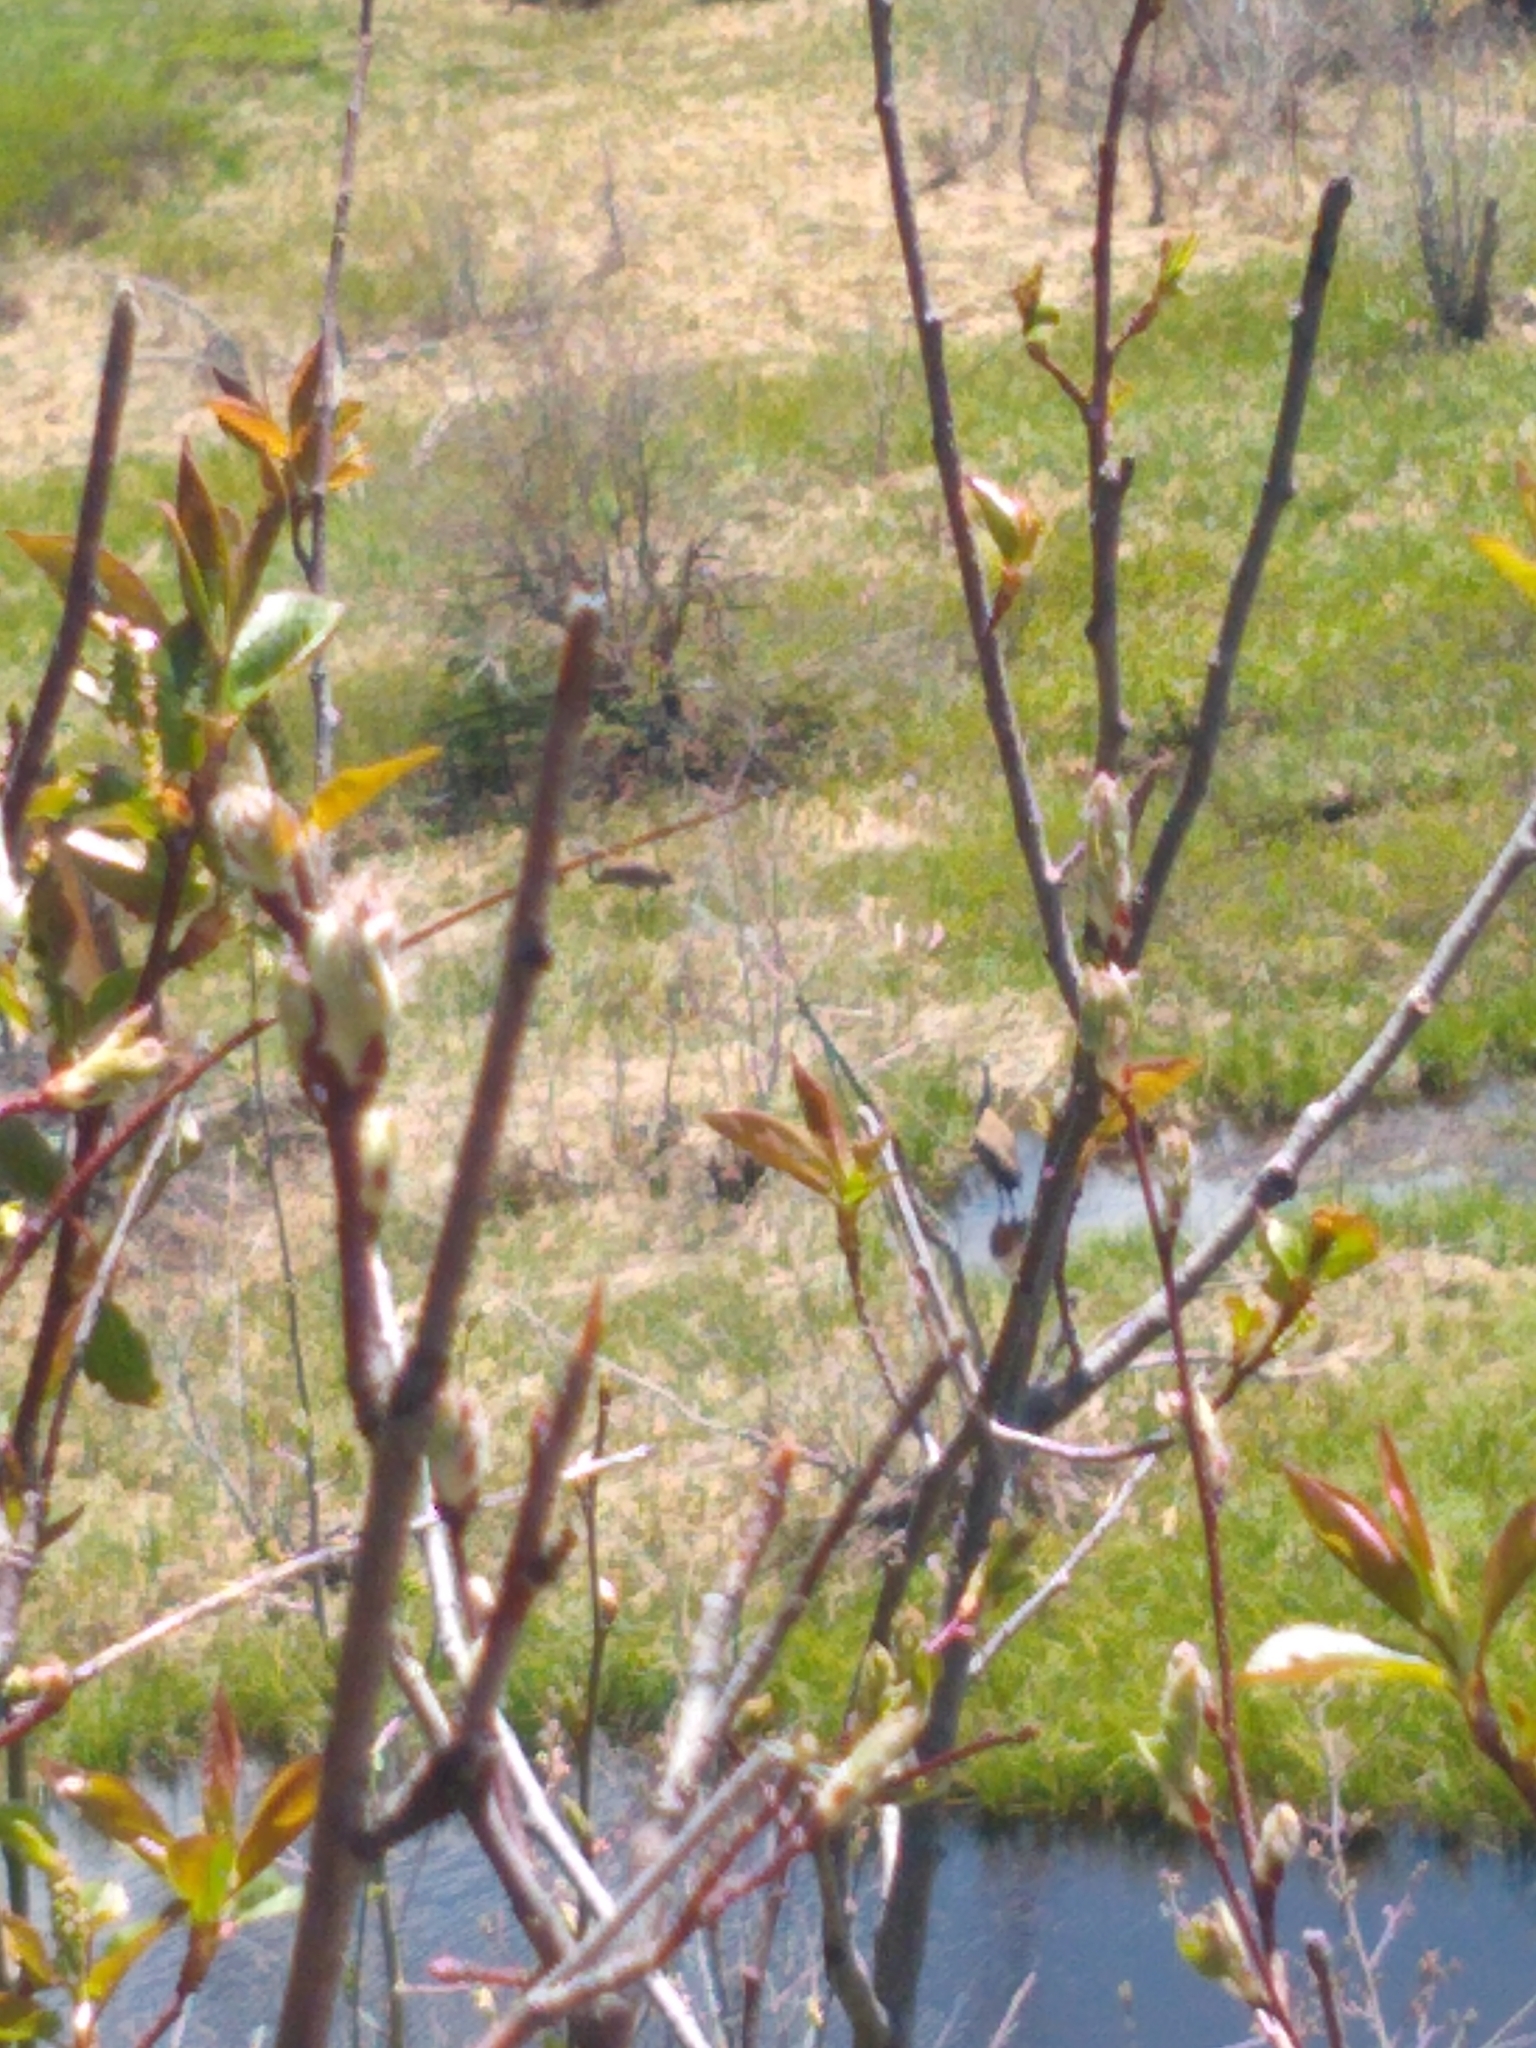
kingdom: Animalia
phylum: Chordata
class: Aves
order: Gruiformes
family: Gruidae
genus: Grus
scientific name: Grus canadensis
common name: Sandhill crane
